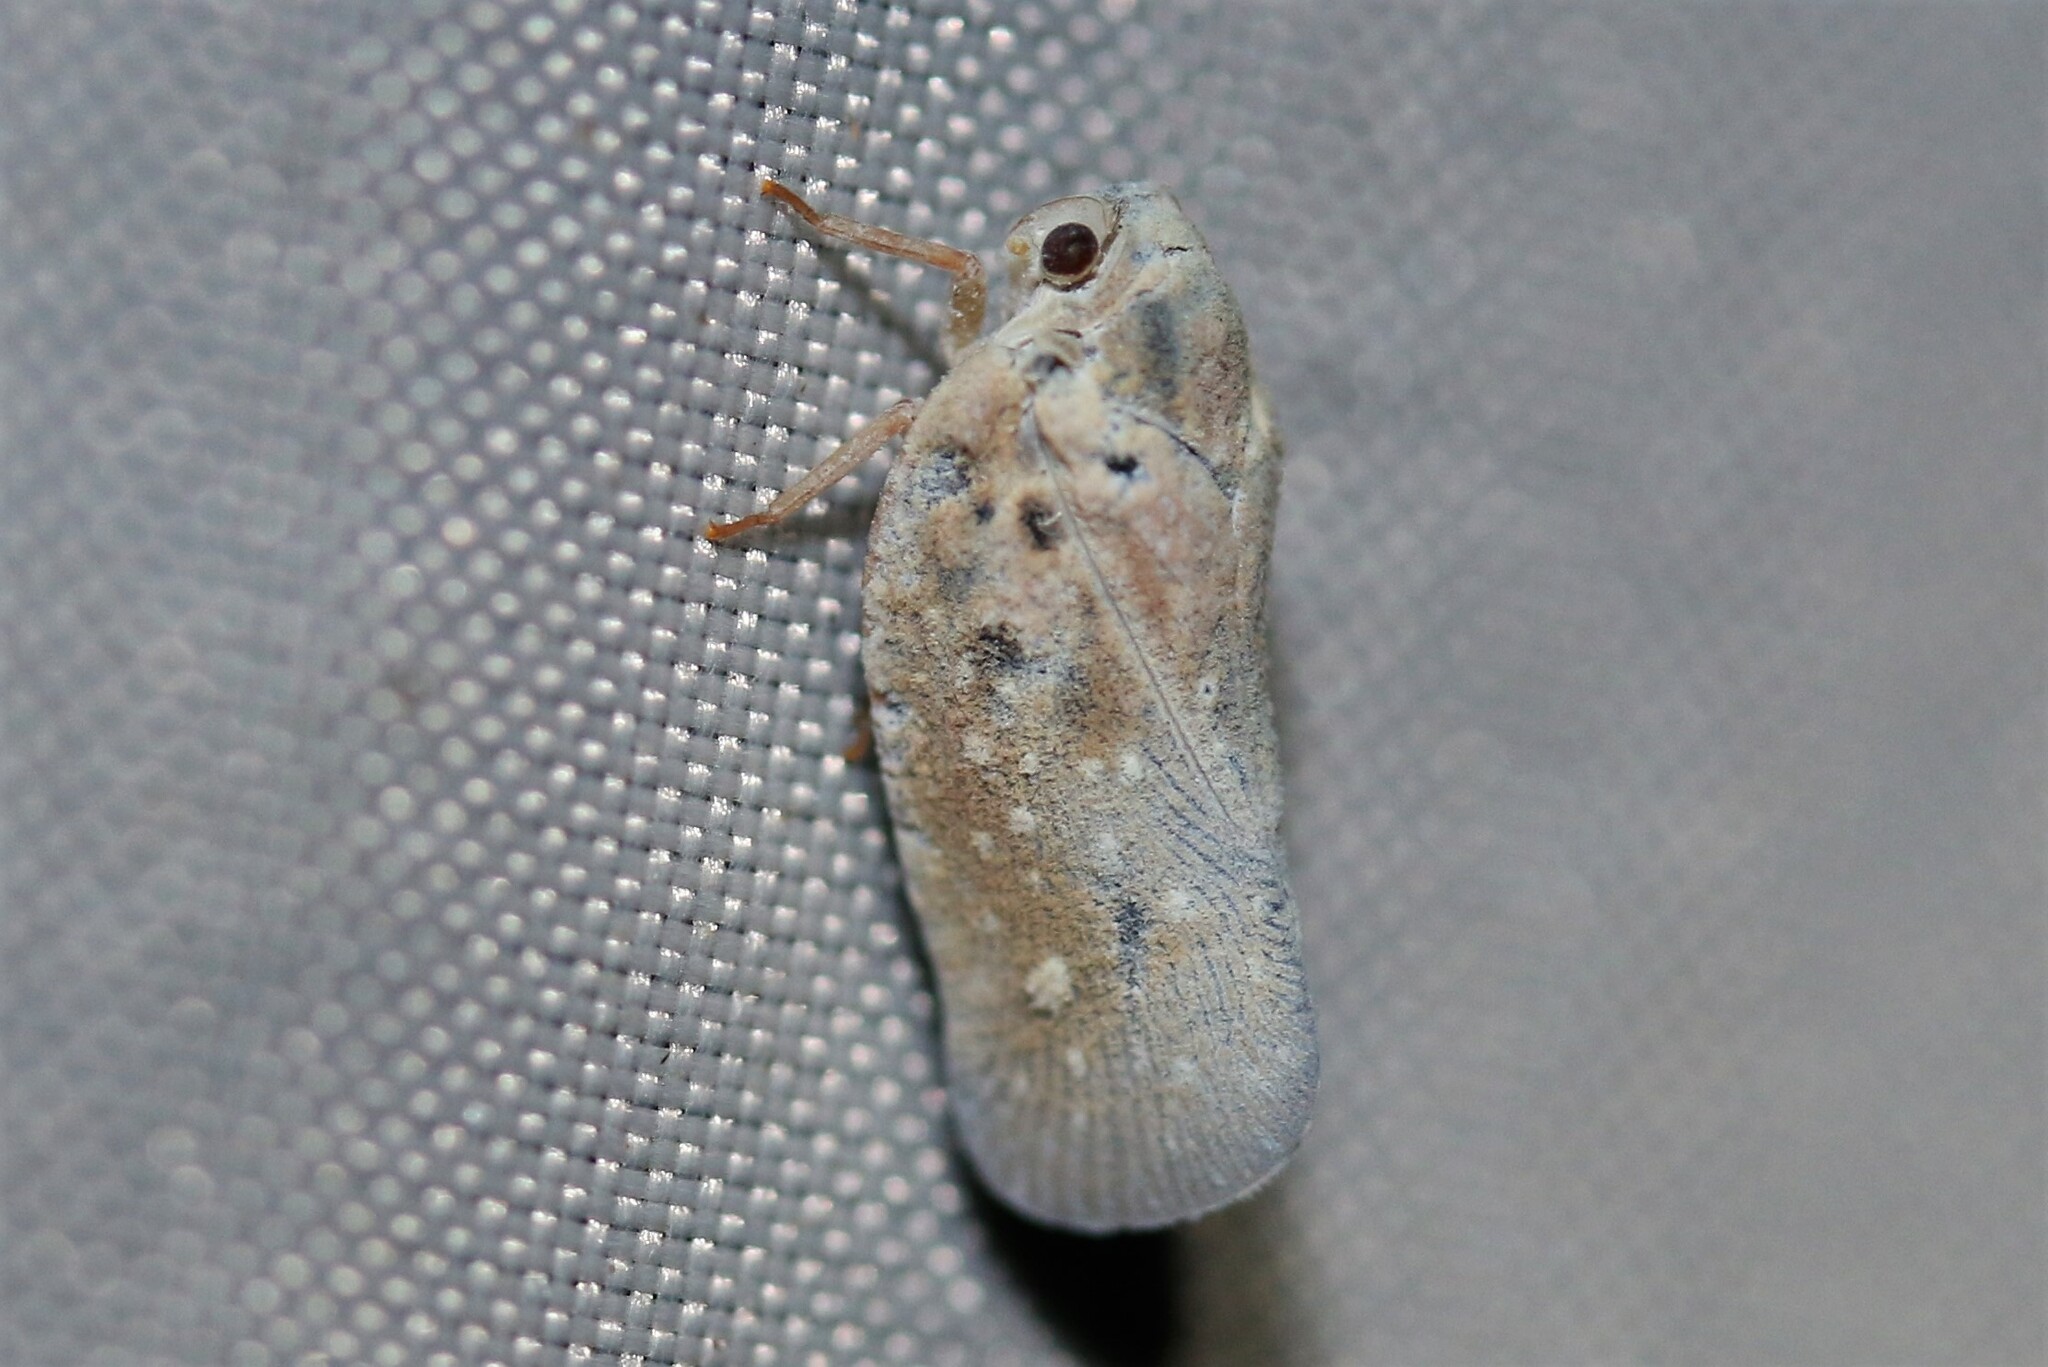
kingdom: Animalia
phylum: Arthropoda
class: Insecta
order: Hemiptera
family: Flatidae
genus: Metcalfa
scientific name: Metcalfa pruinosa
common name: Citrus flatid planthopper
